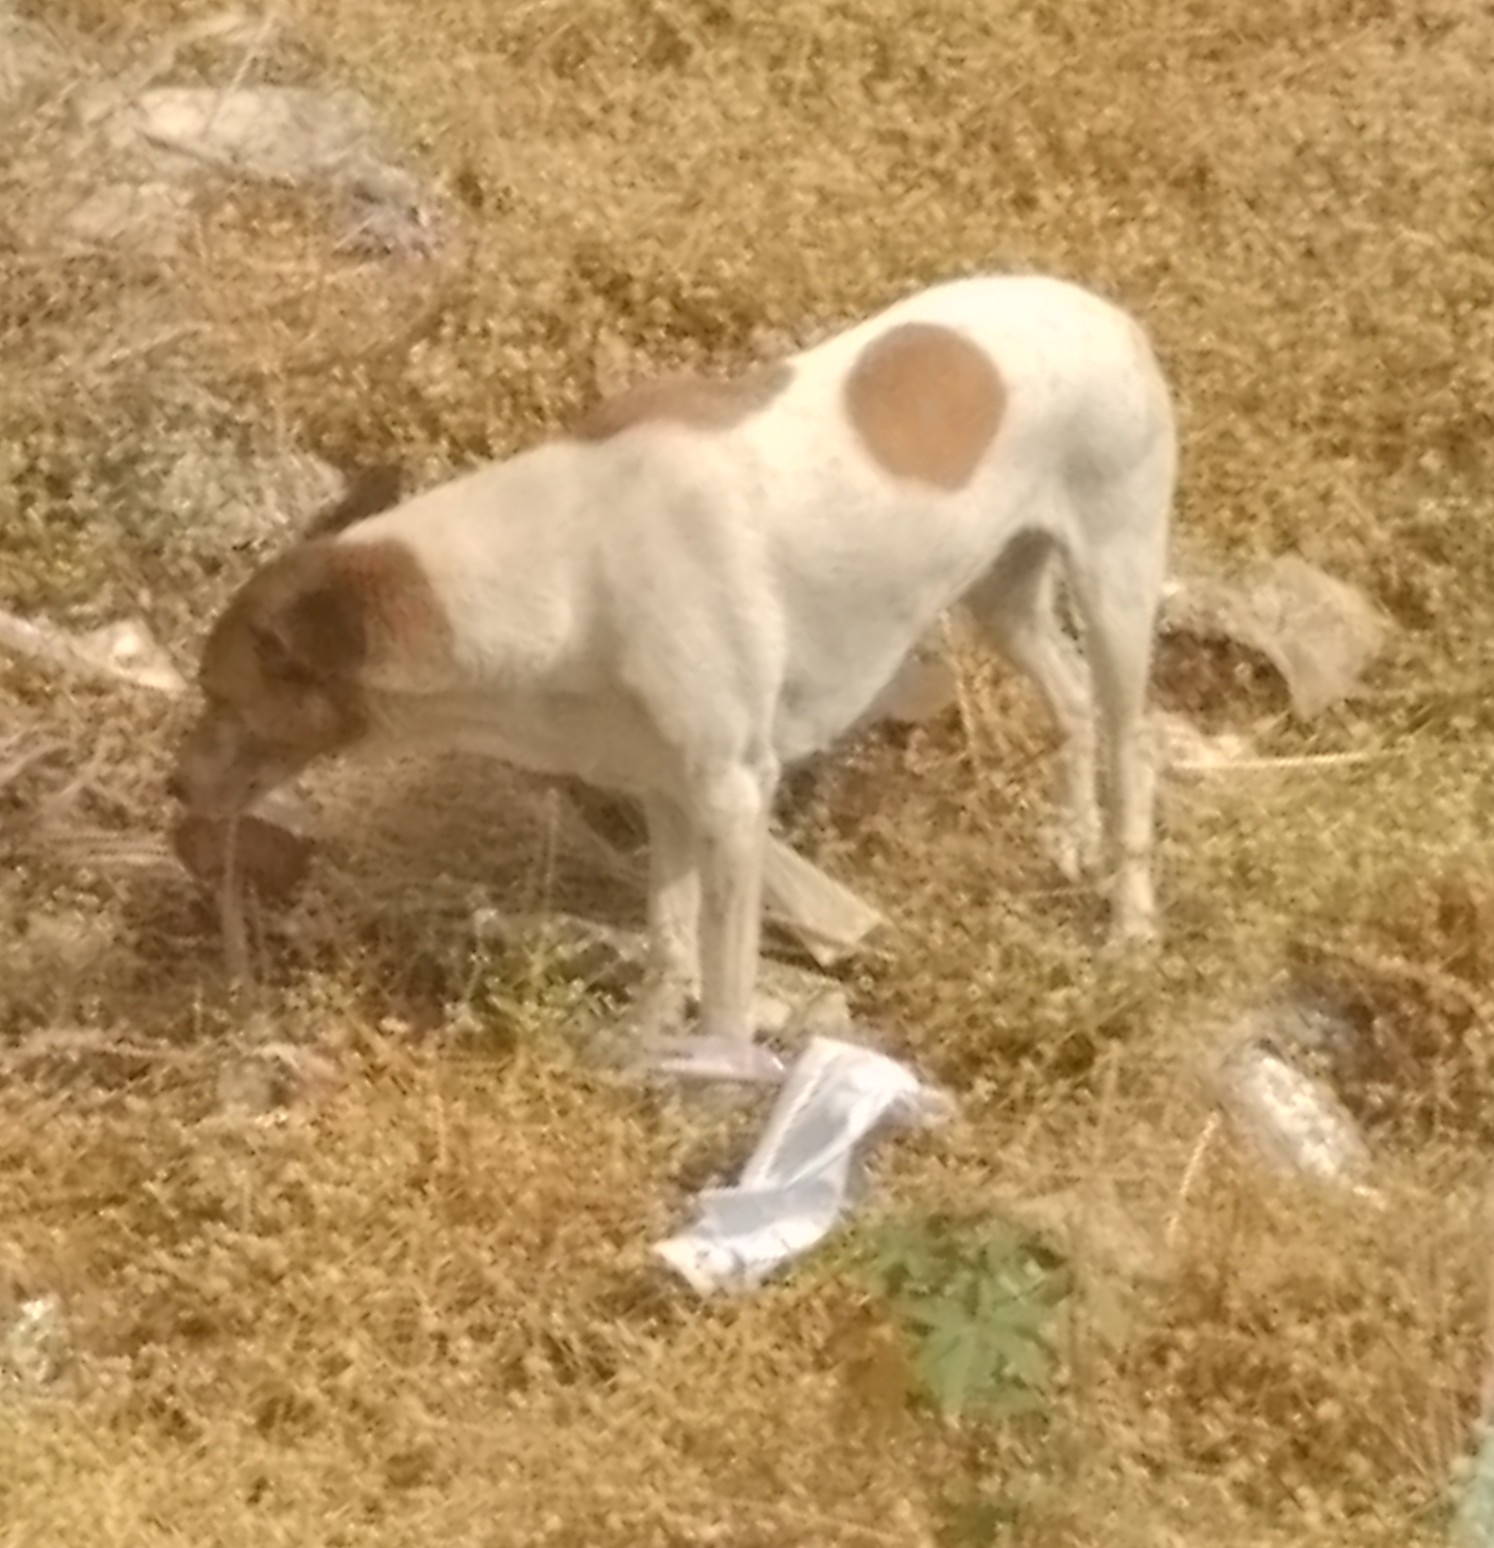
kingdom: Animalia
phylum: Chordata
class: Mammalia
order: Carnivora
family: Canidae
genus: Canis
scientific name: Canis lupus
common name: Gray wolf
